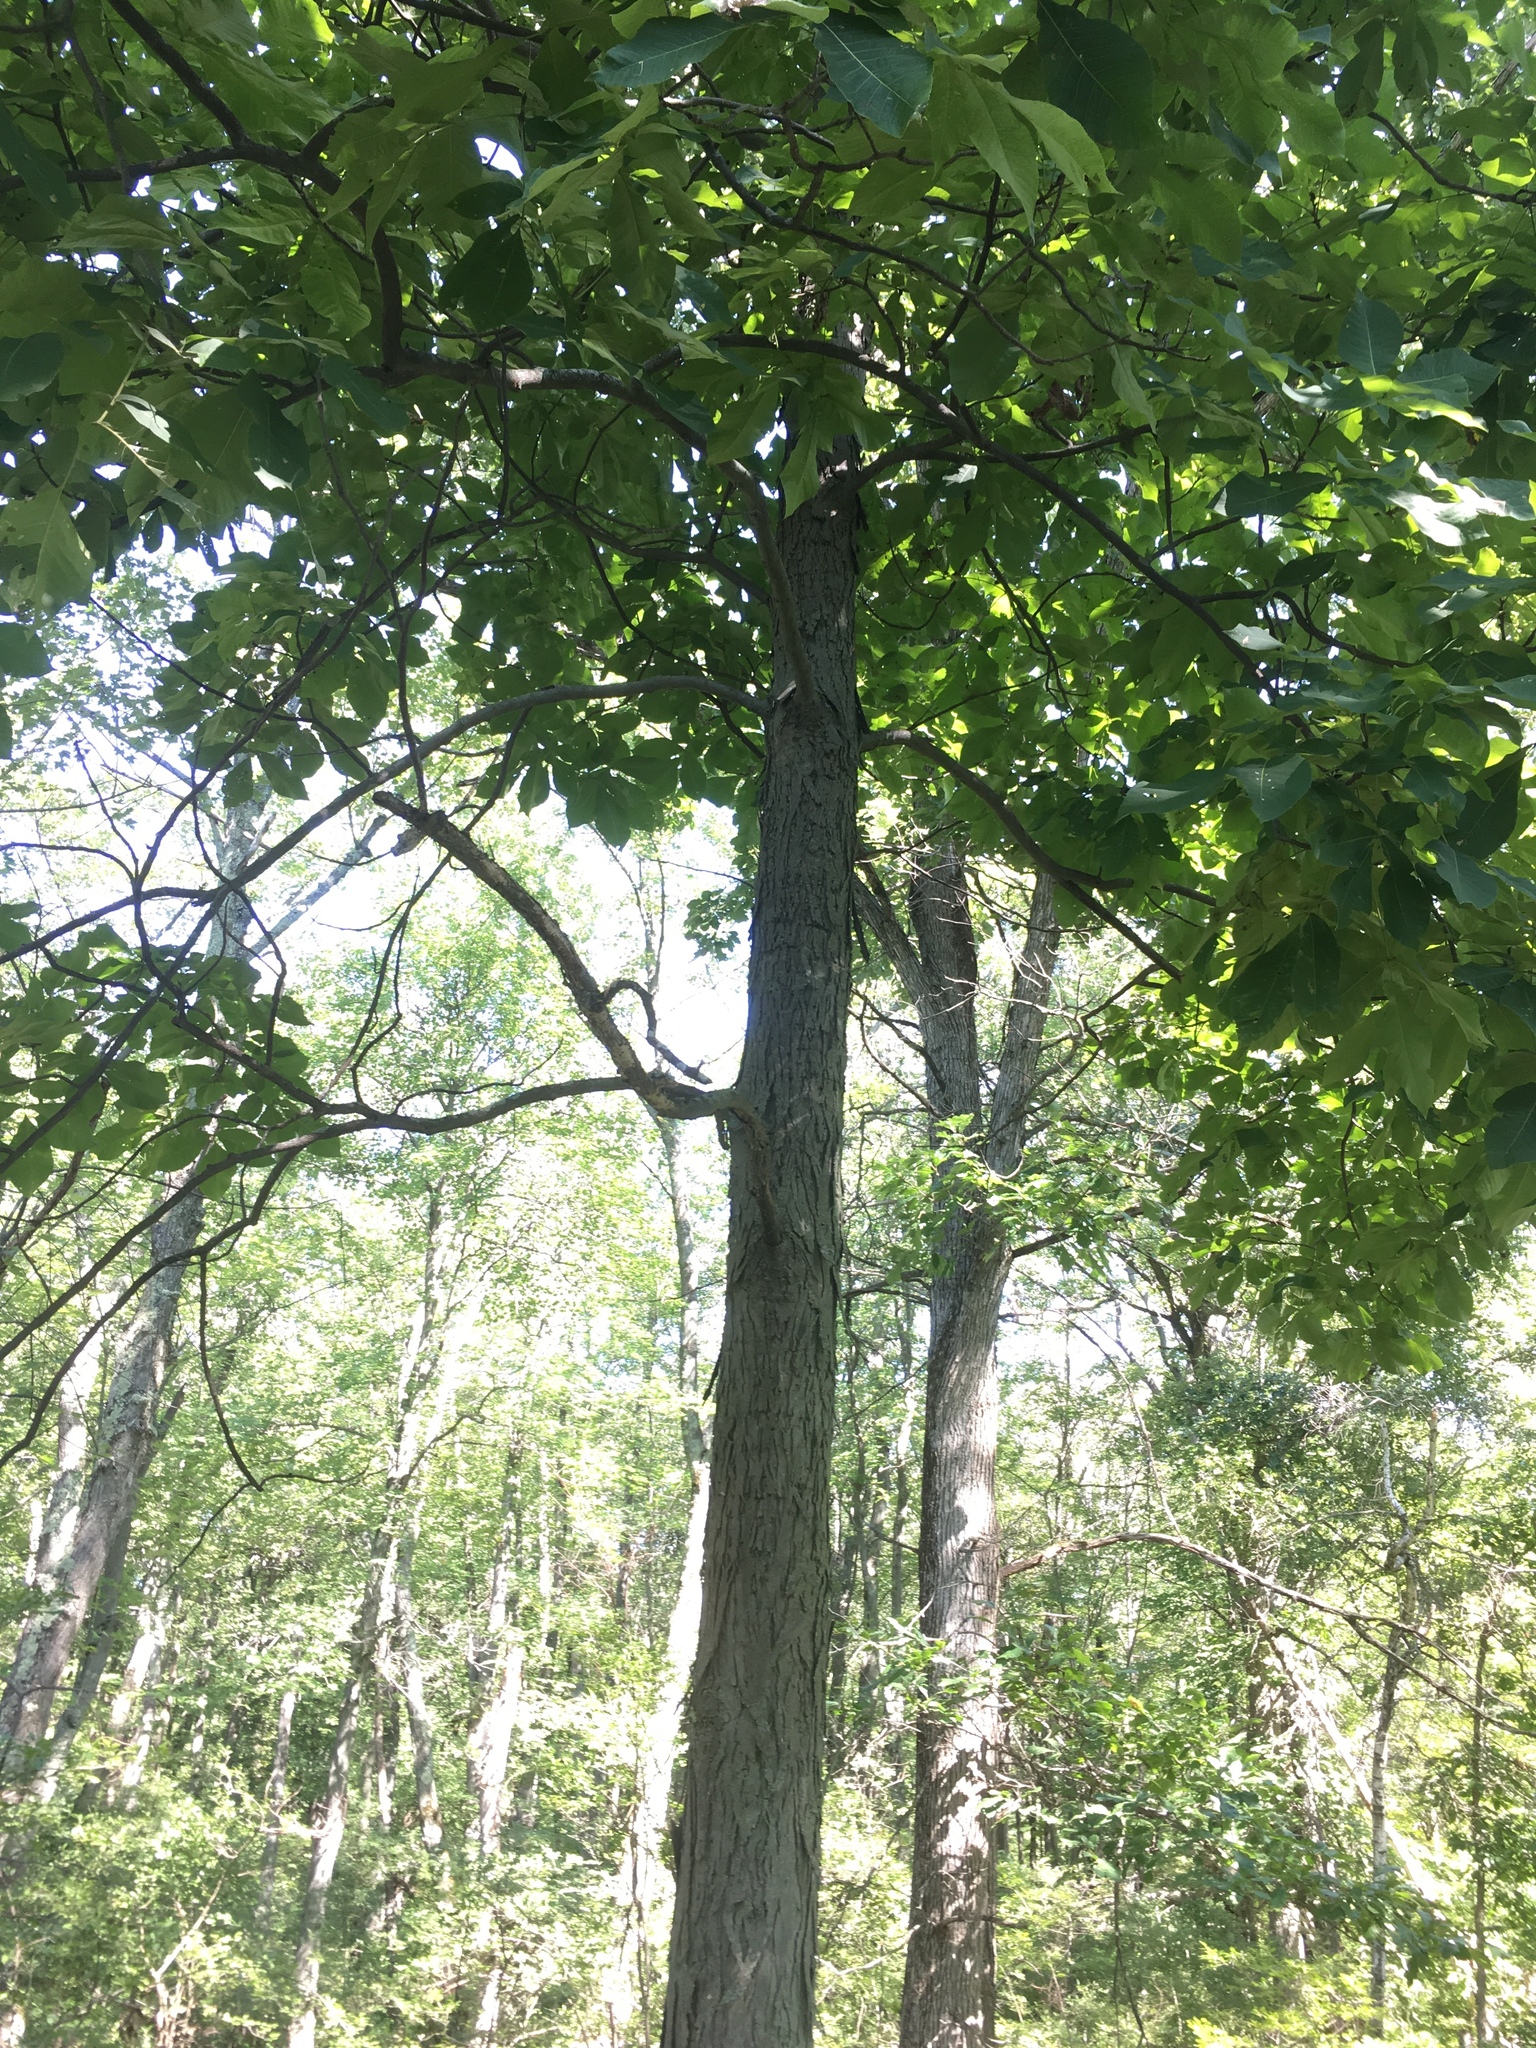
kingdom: Plantae
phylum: Tracheophyta
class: Magnoliopsida
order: Fagales
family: Juglandaceae
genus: Carya
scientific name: Carya ovata
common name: Shagbark hickory
